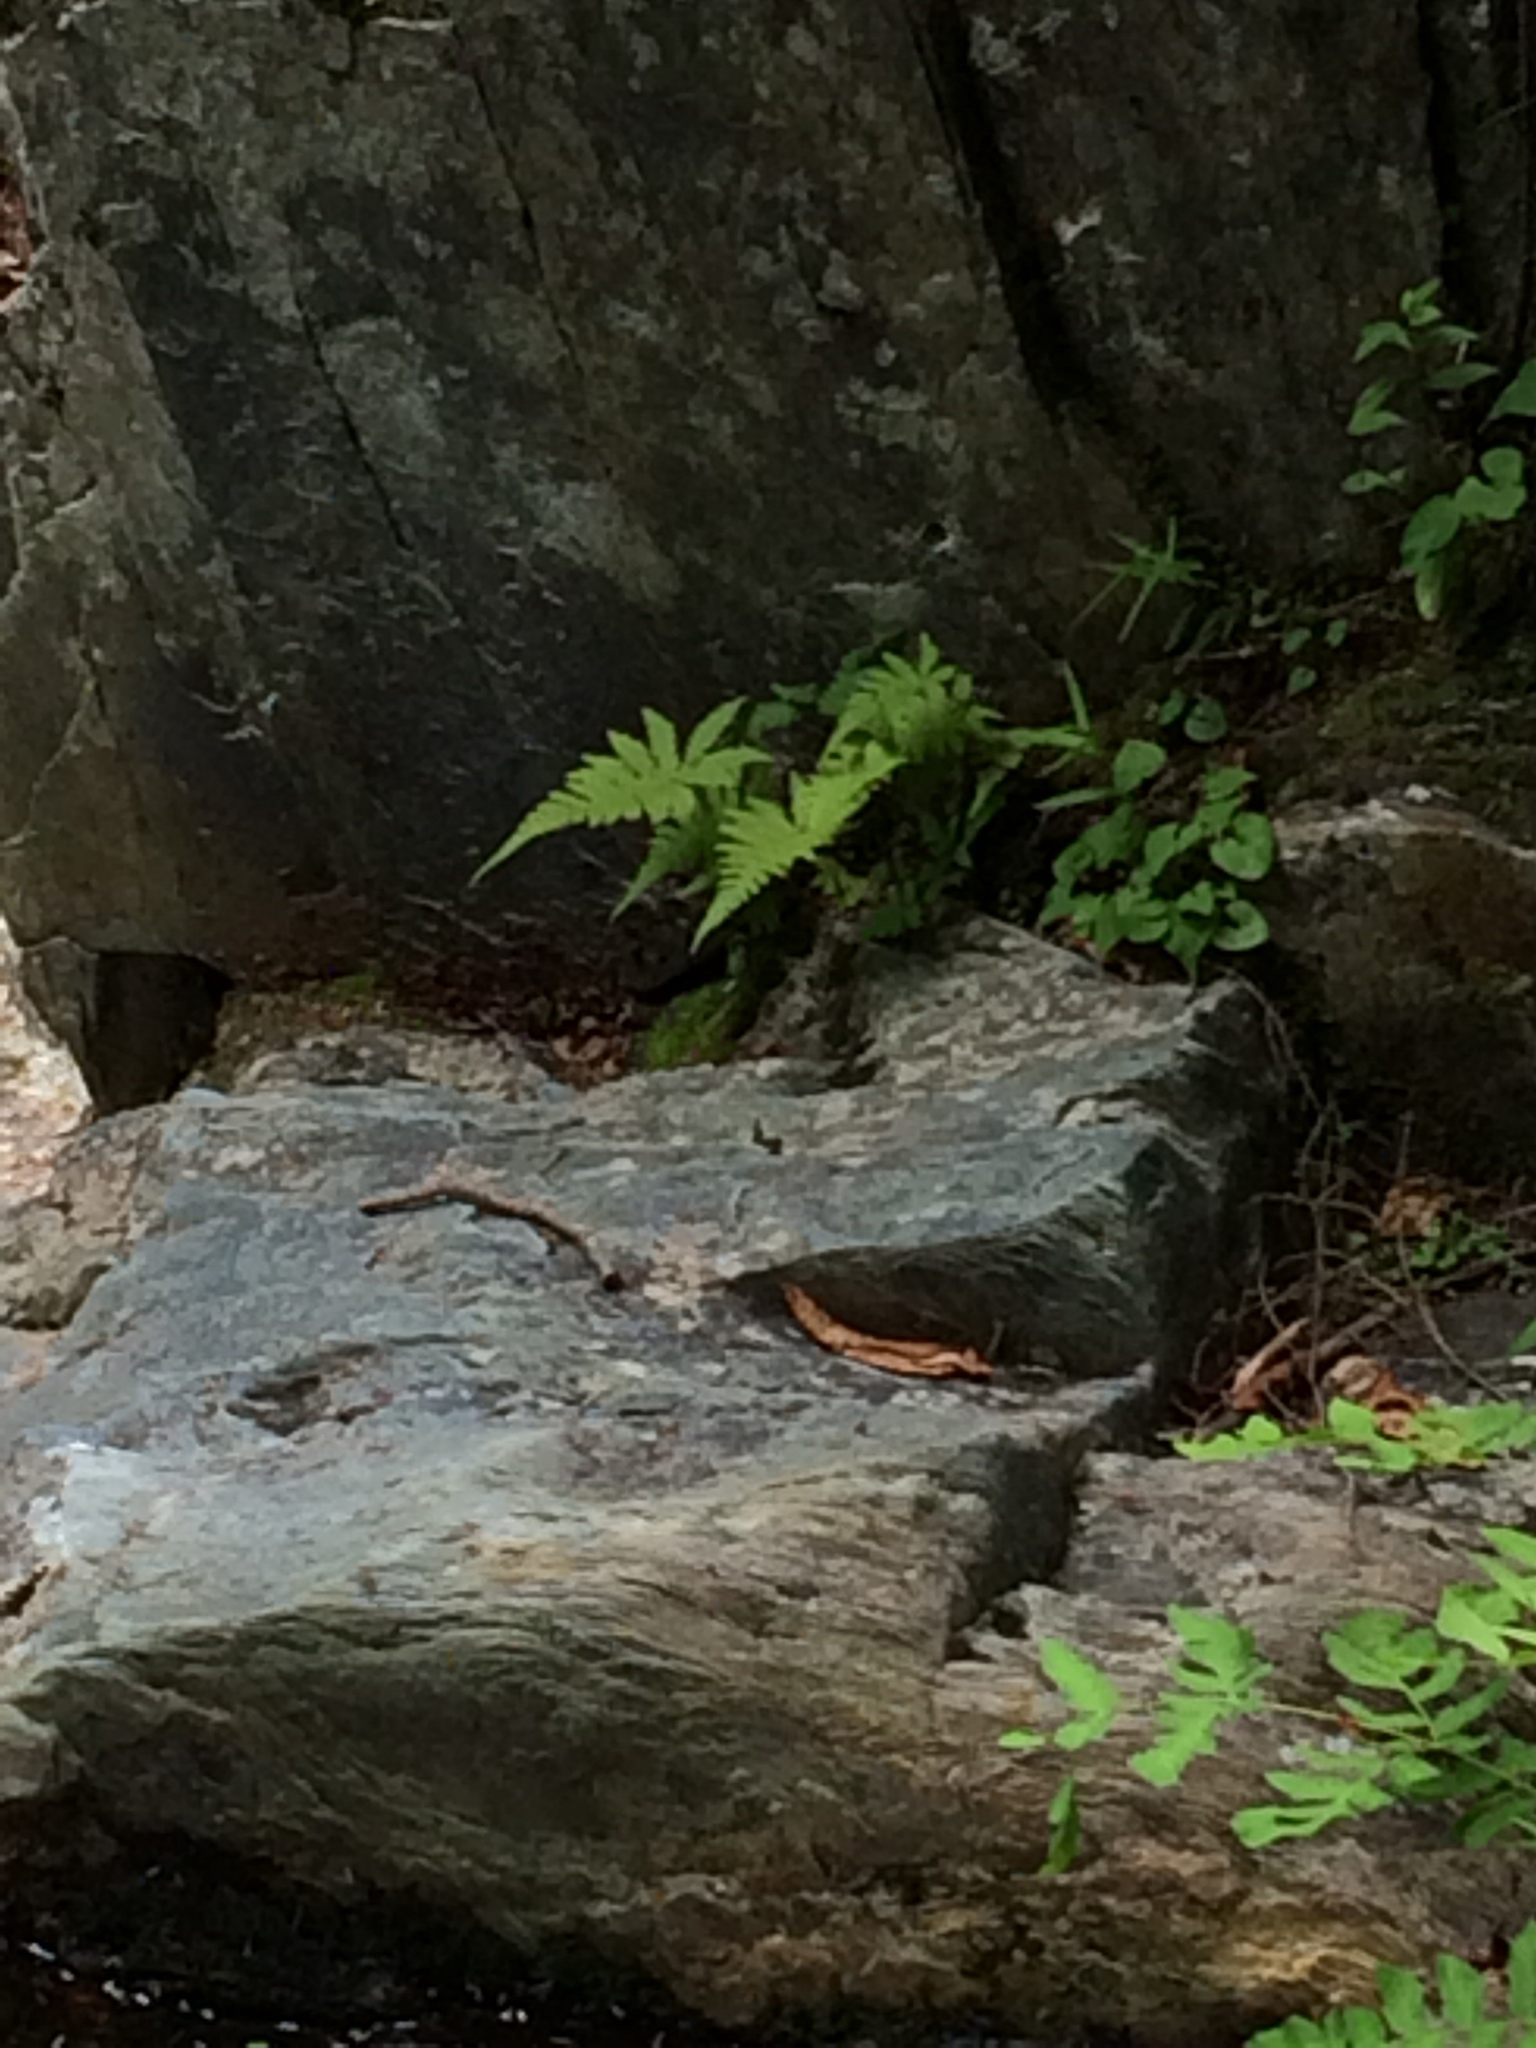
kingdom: Plantae
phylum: Tracheophyta
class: Polypodiopsida
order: Polypodiales
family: Thelypteridaceae
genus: Phegopteris
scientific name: Phegopteris connectilis
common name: Beech fern
